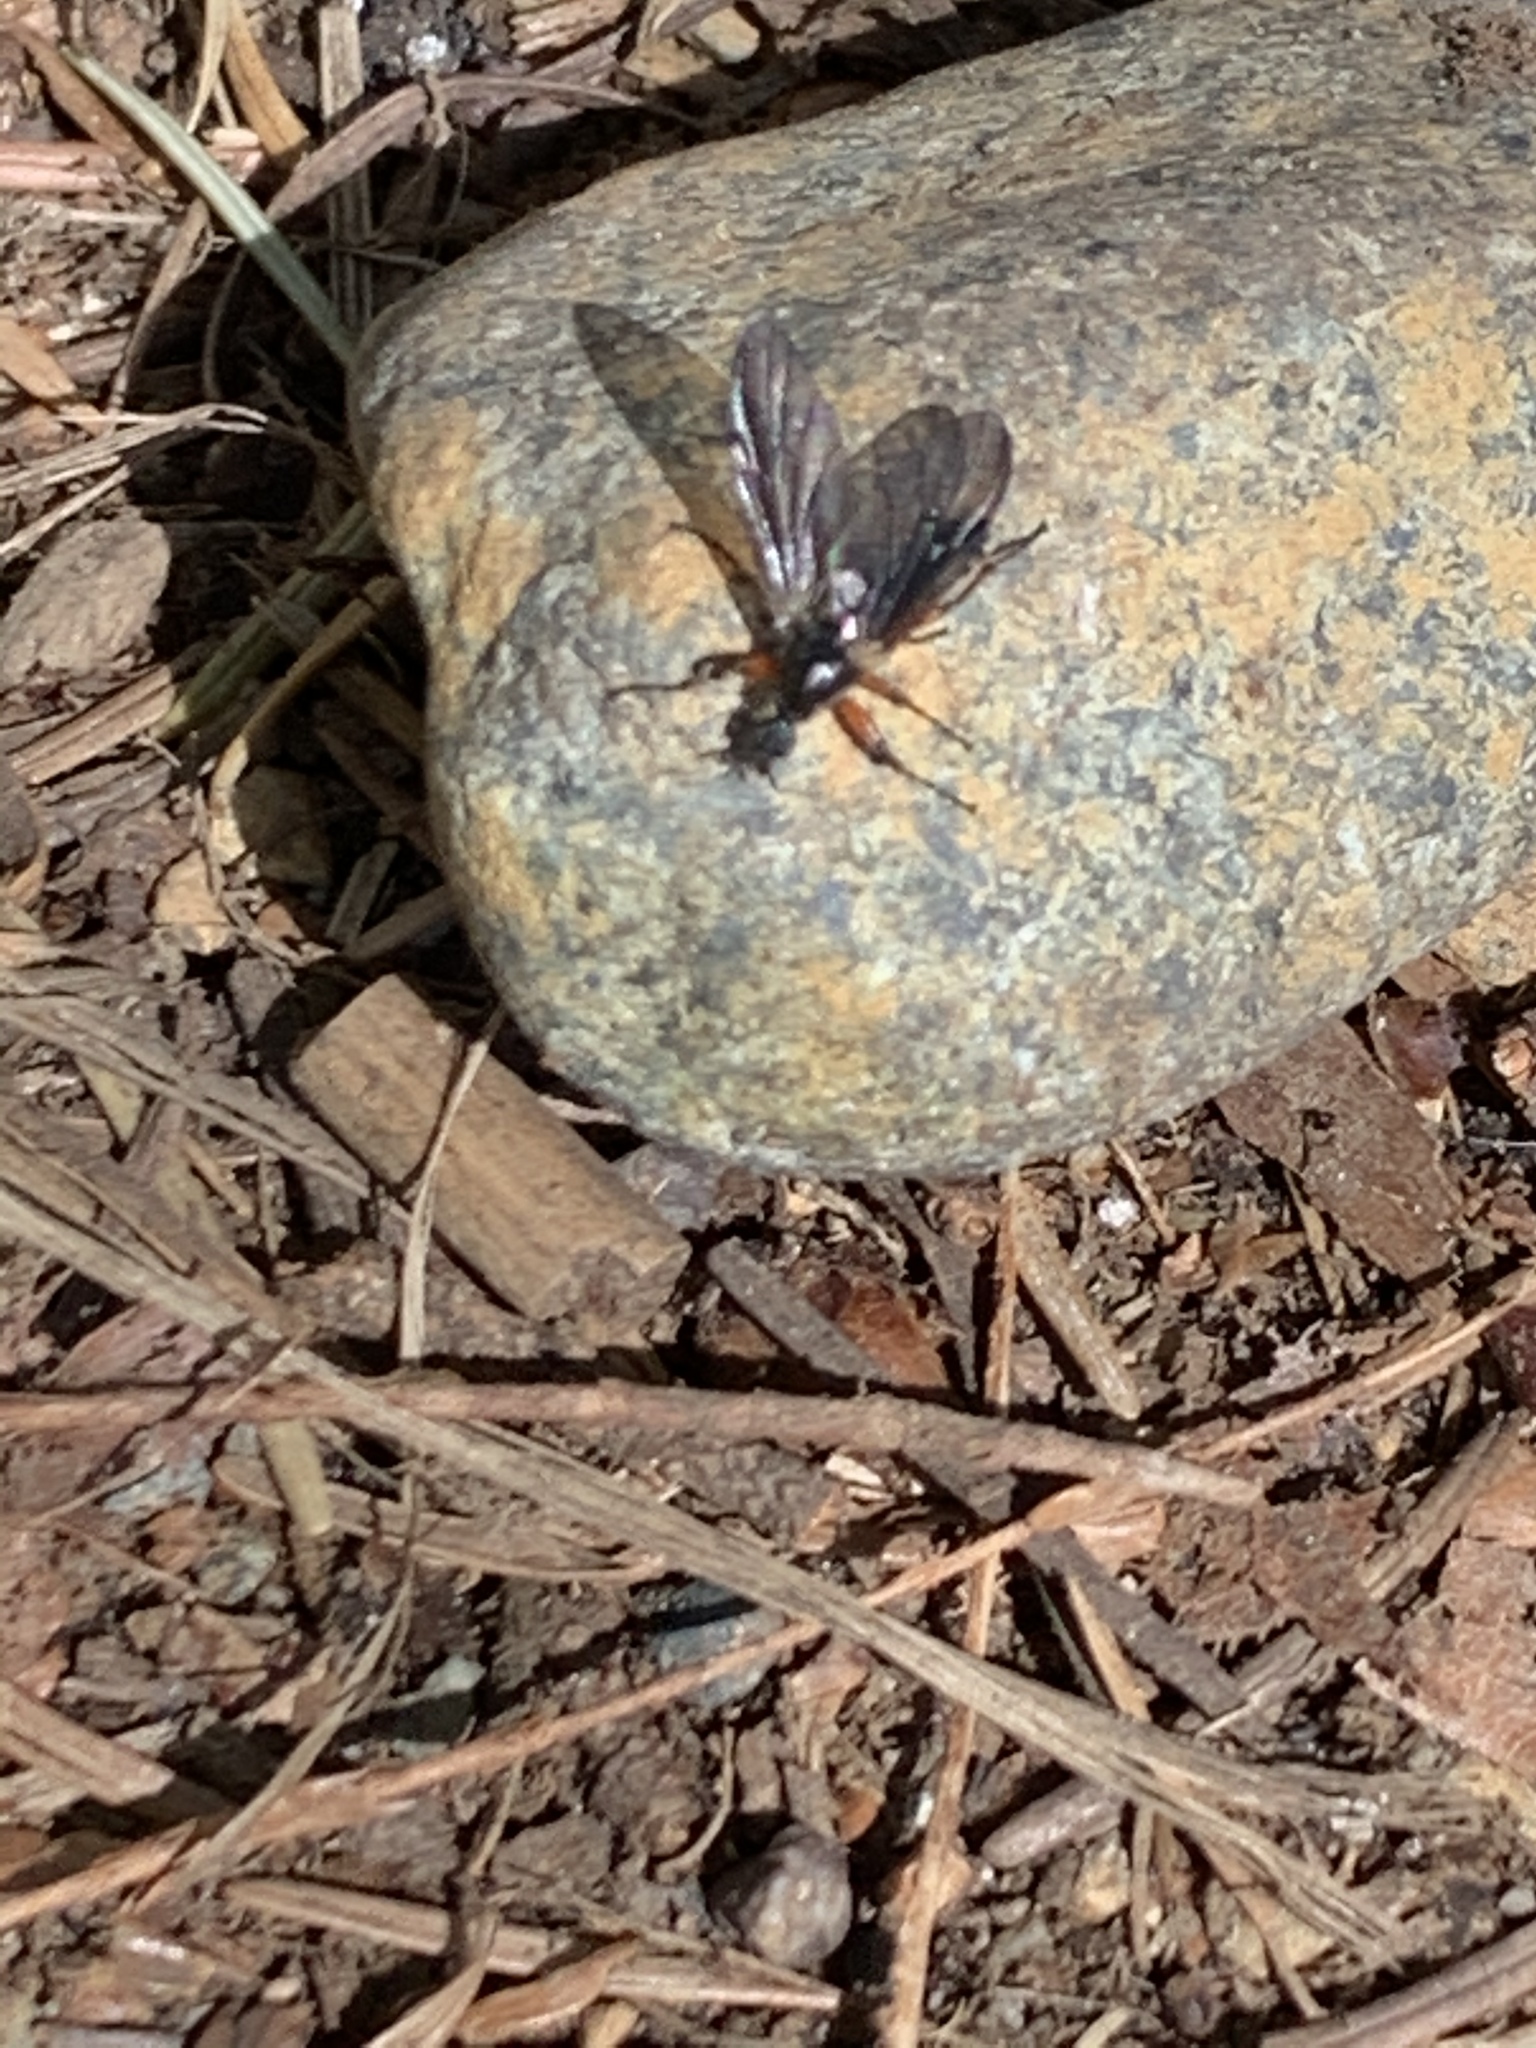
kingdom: Animalia
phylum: Arthropoda
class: Insecta
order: Diptera
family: Bibionidae
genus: Bibio
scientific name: Bibio
